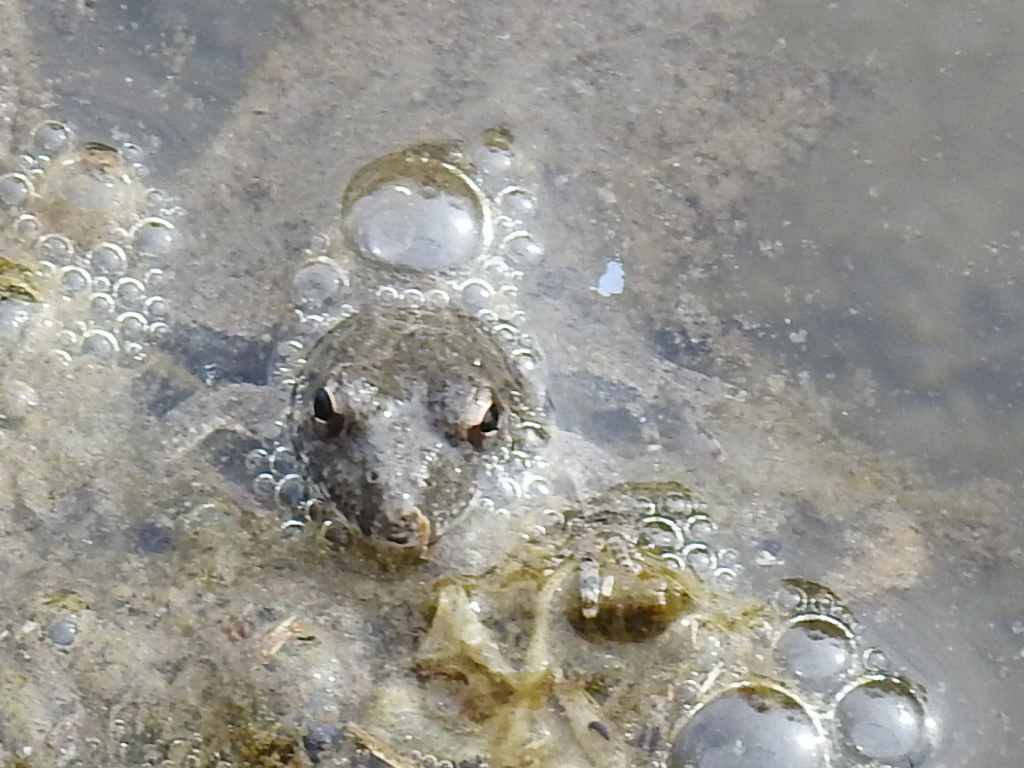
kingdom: Animalia
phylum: Chordata
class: Amphibia
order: Anura
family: Hylidae
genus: Acris
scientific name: Acris blanchardi
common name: Blanchard's cricket frog
